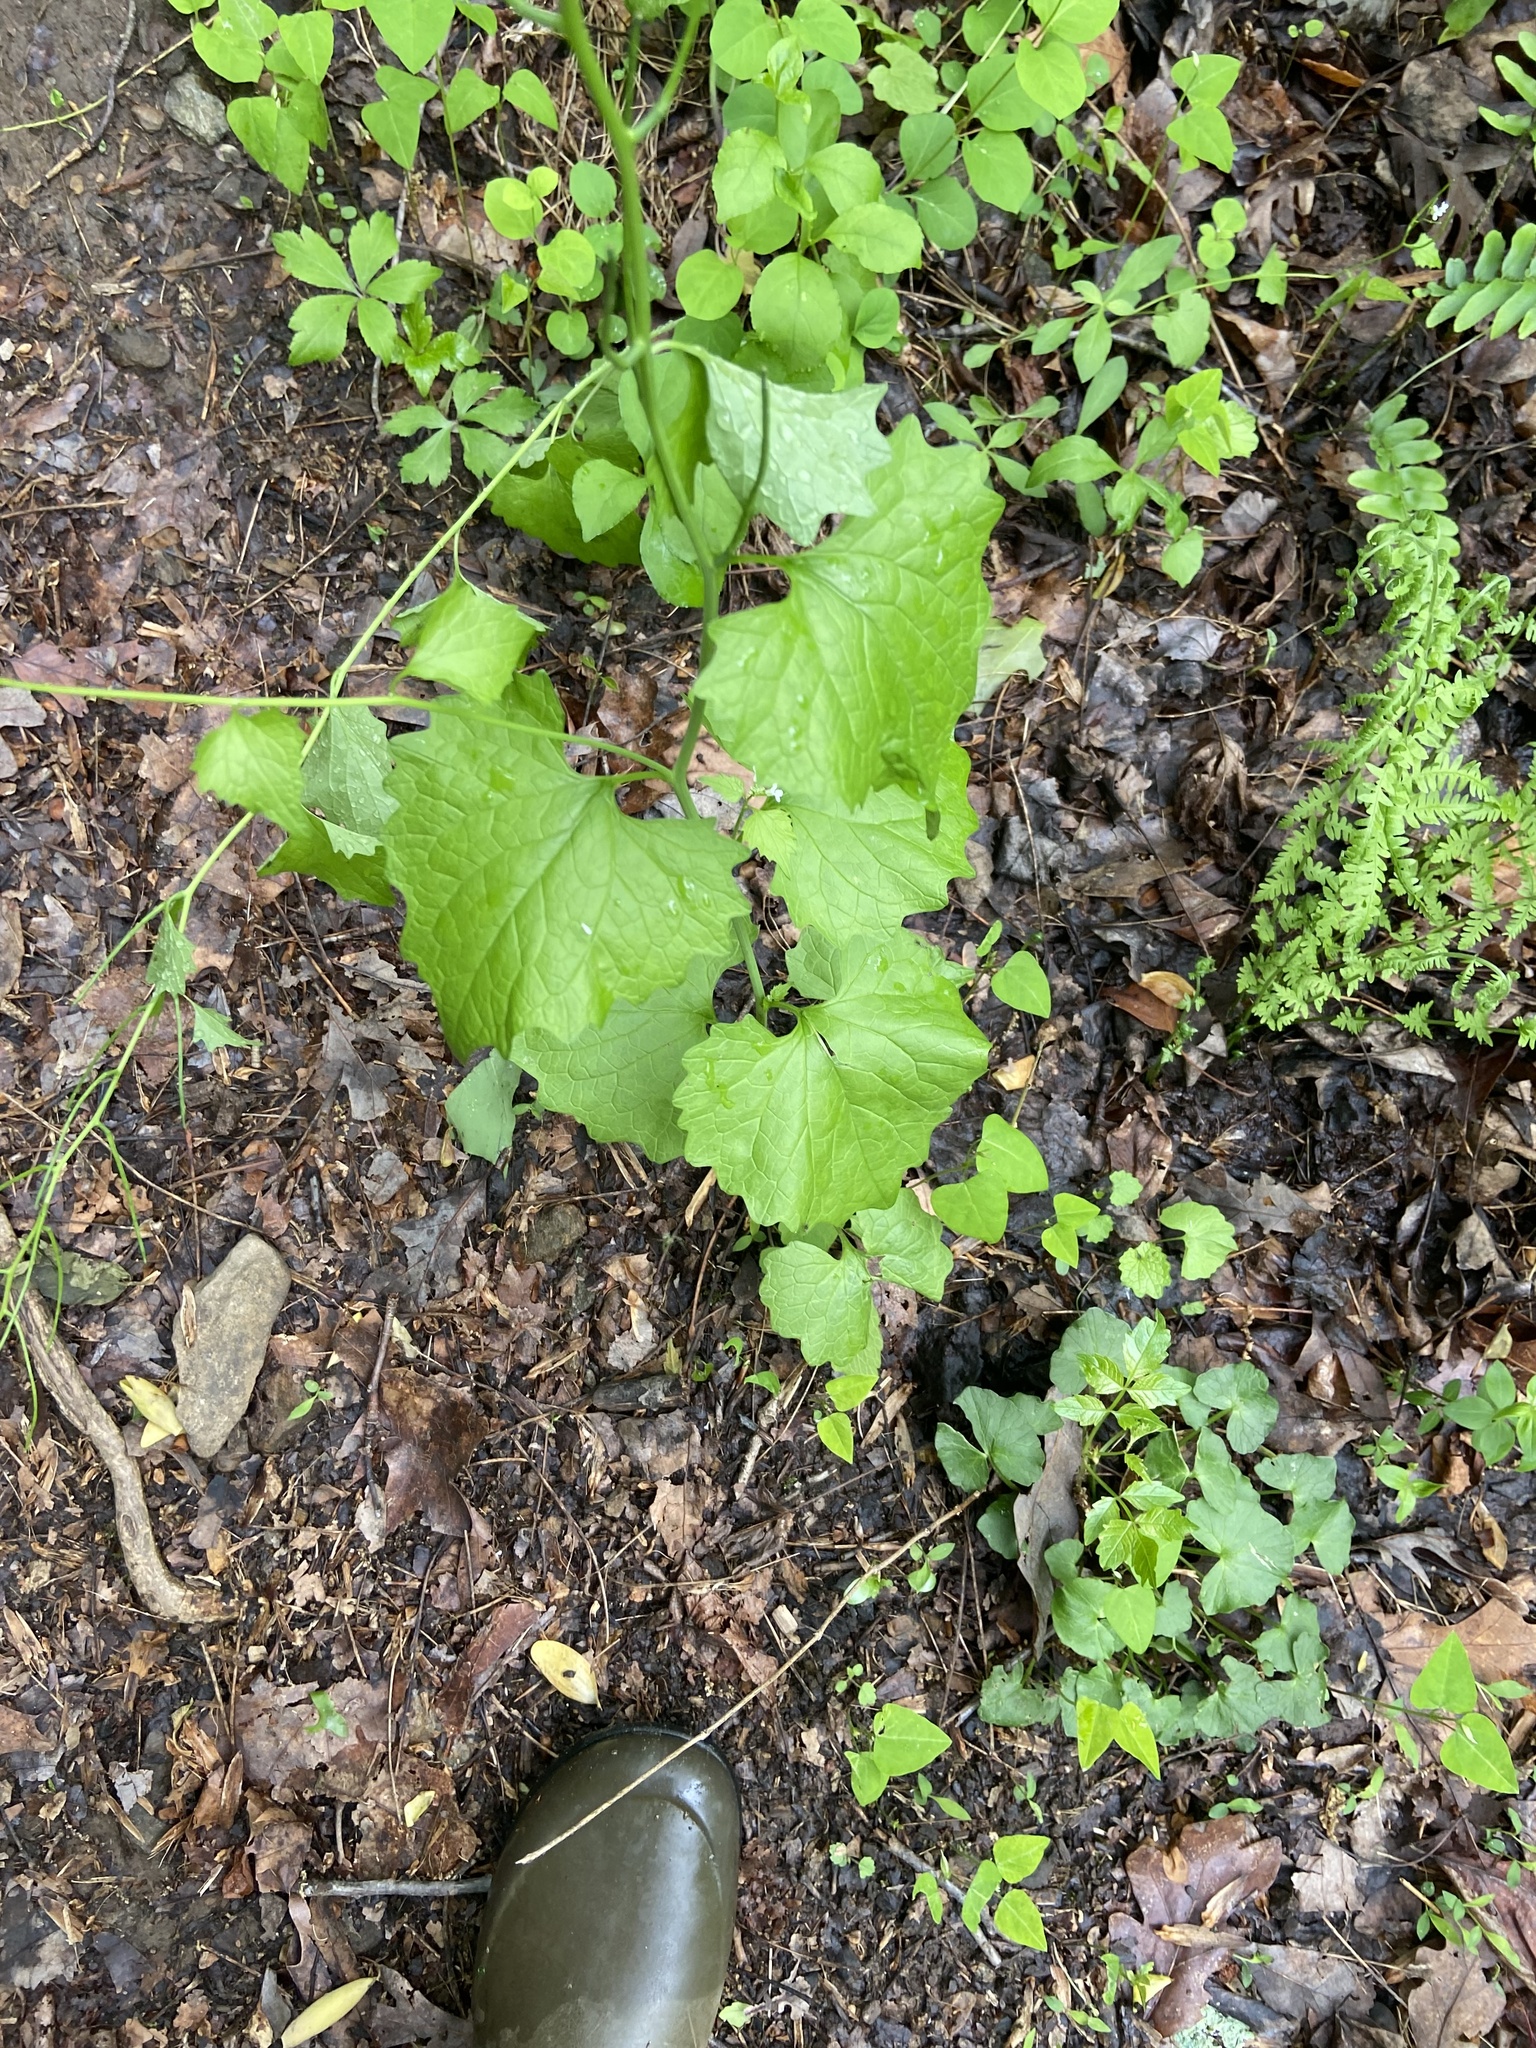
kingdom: Plantae
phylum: Tracheophyta
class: Magnoliopsida
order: Brassicales
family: Brassicaceae
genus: Alliaria
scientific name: Alliaria petiolata
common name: Garlic mustard
